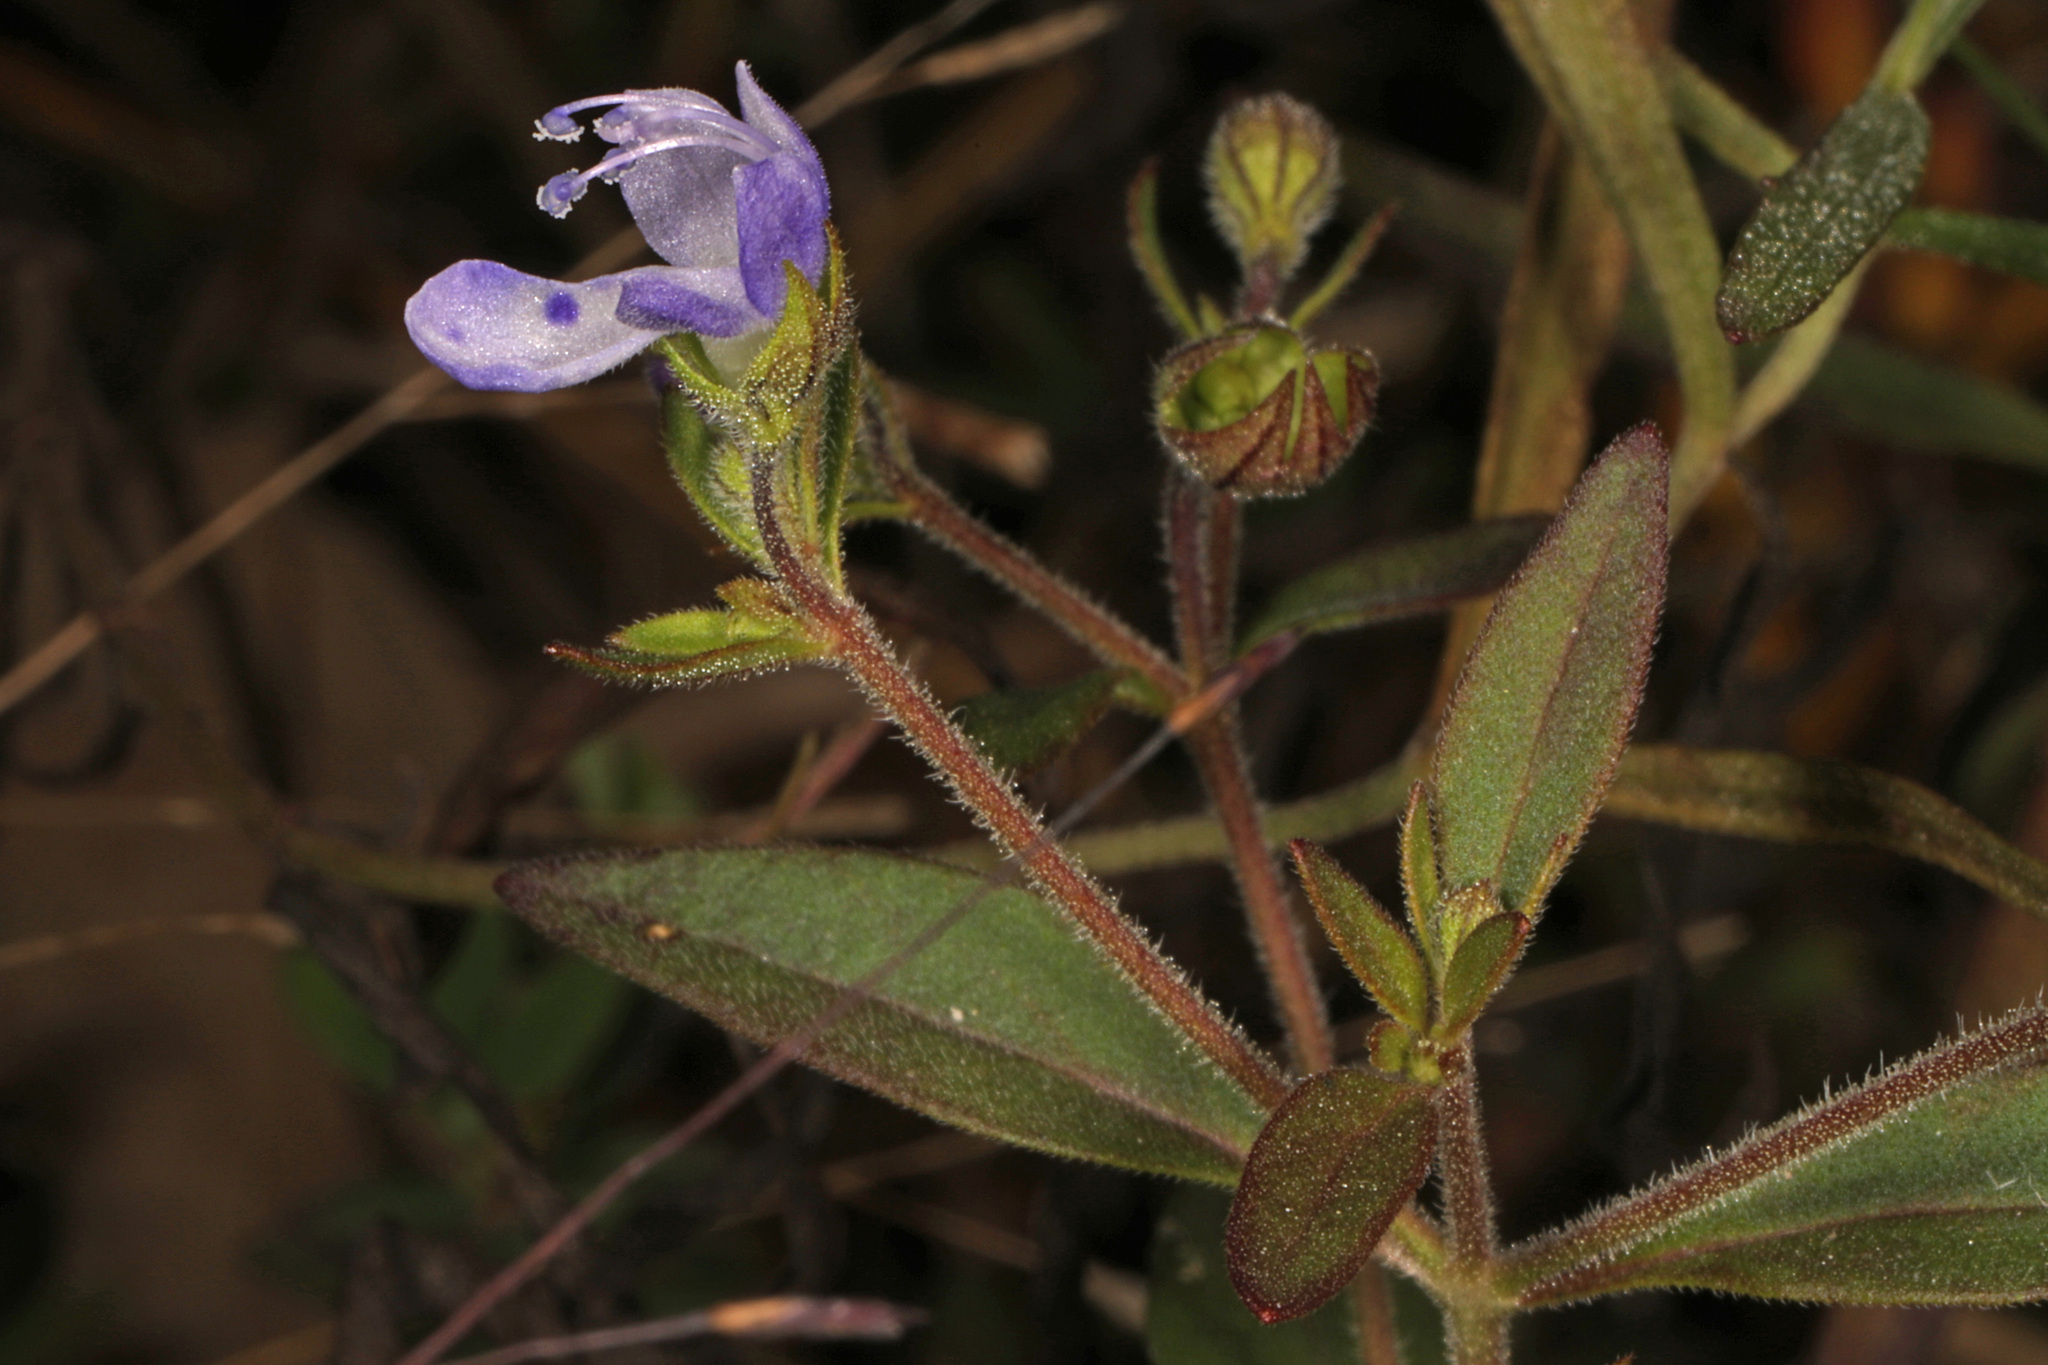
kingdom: Plantae
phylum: Tracheophyta
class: Magnoliopsida
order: Lamiales
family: Lamiaceae
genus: Trichostema
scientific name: Trichostema dichotomum
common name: Bastard pennyroyal
